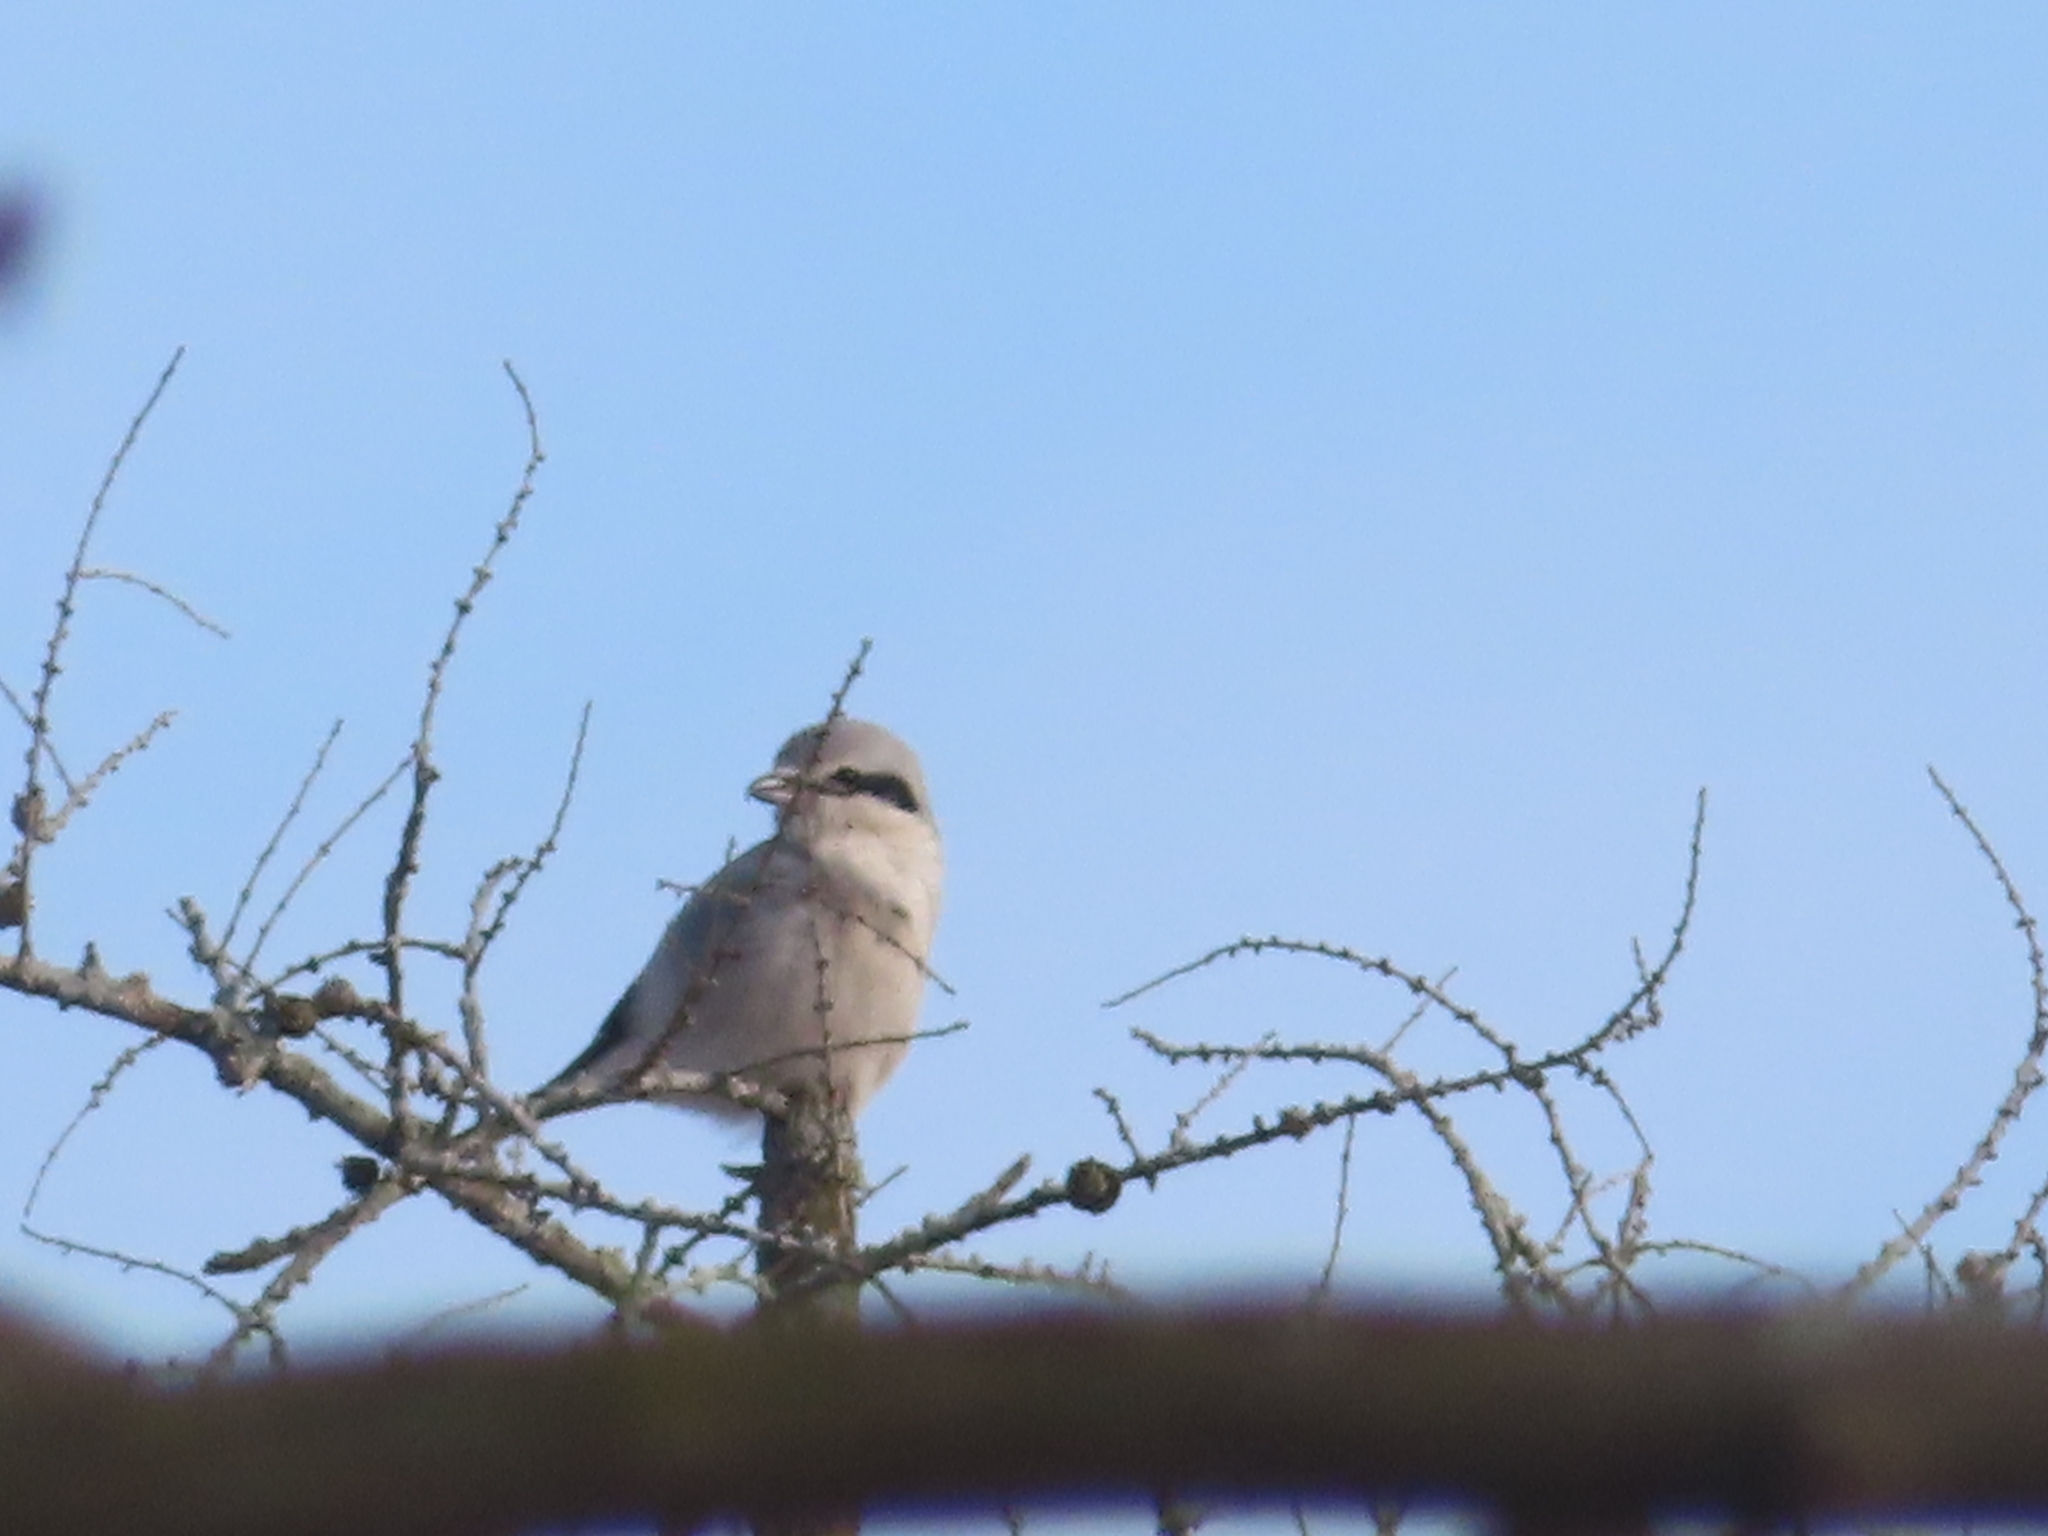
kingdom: Animalia
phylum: Chordata
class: Aves
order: Passeriformes
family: Laniidae
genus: Lanius
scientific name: Lanius borealis
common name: Northern shrike
